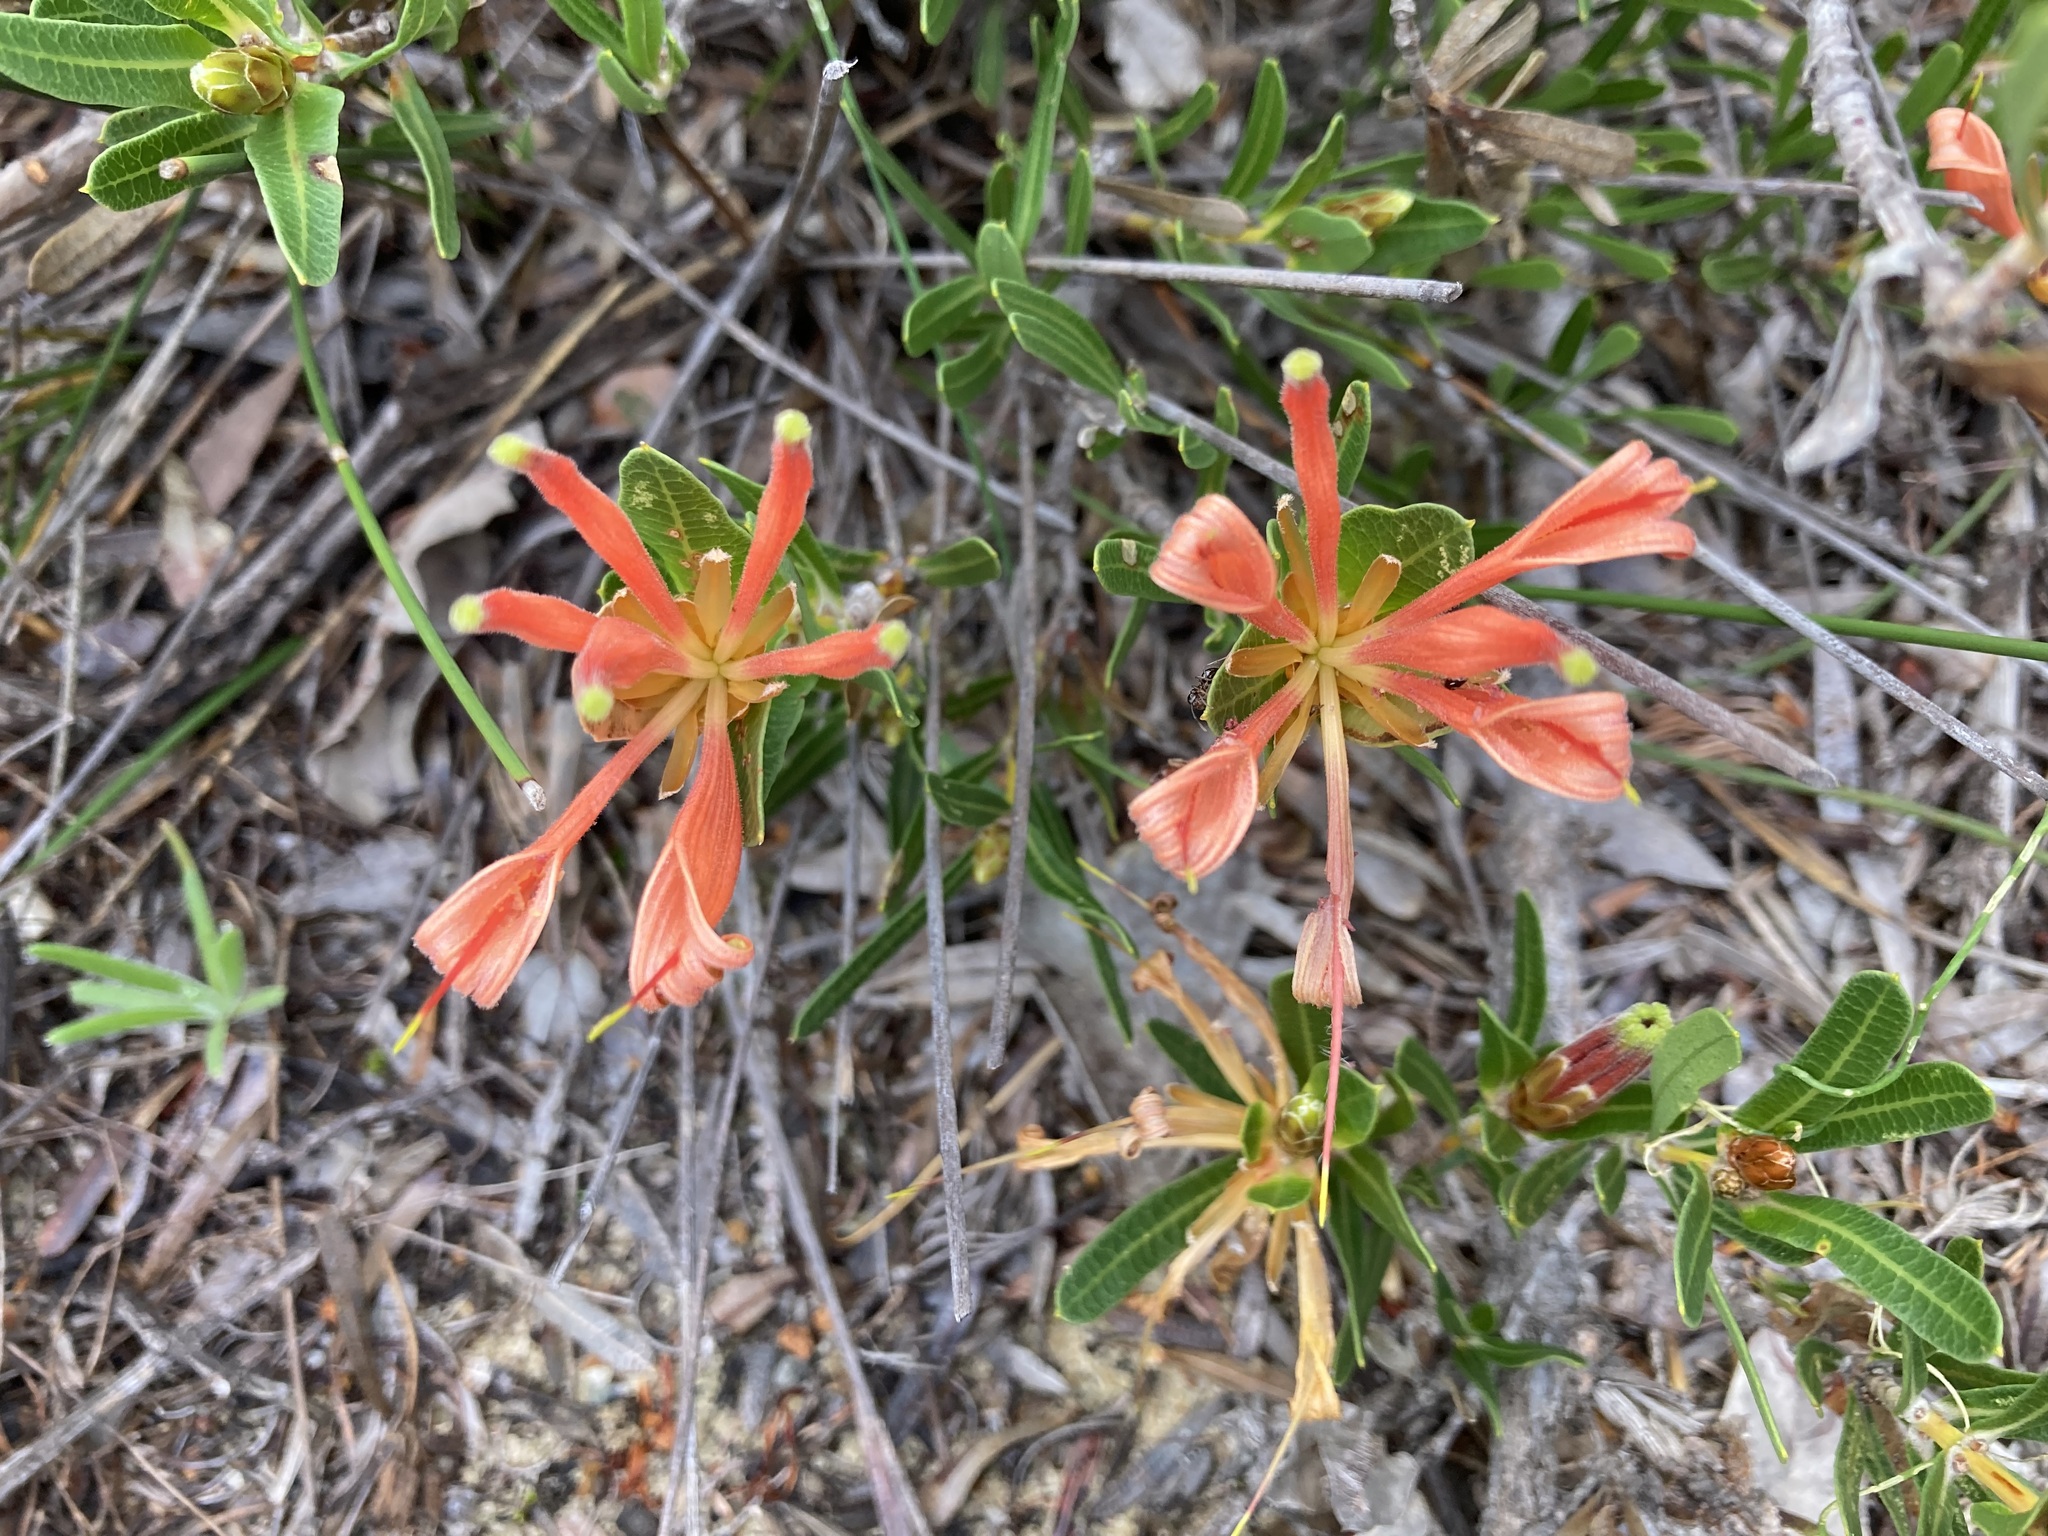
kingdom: Plantae
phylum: Tracheophyta
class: Magnoliopsida
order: Proteales
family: Proteaceae
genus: Lambertia
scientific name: Lambertia multiflora
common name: Many-flowered honeysuckle
